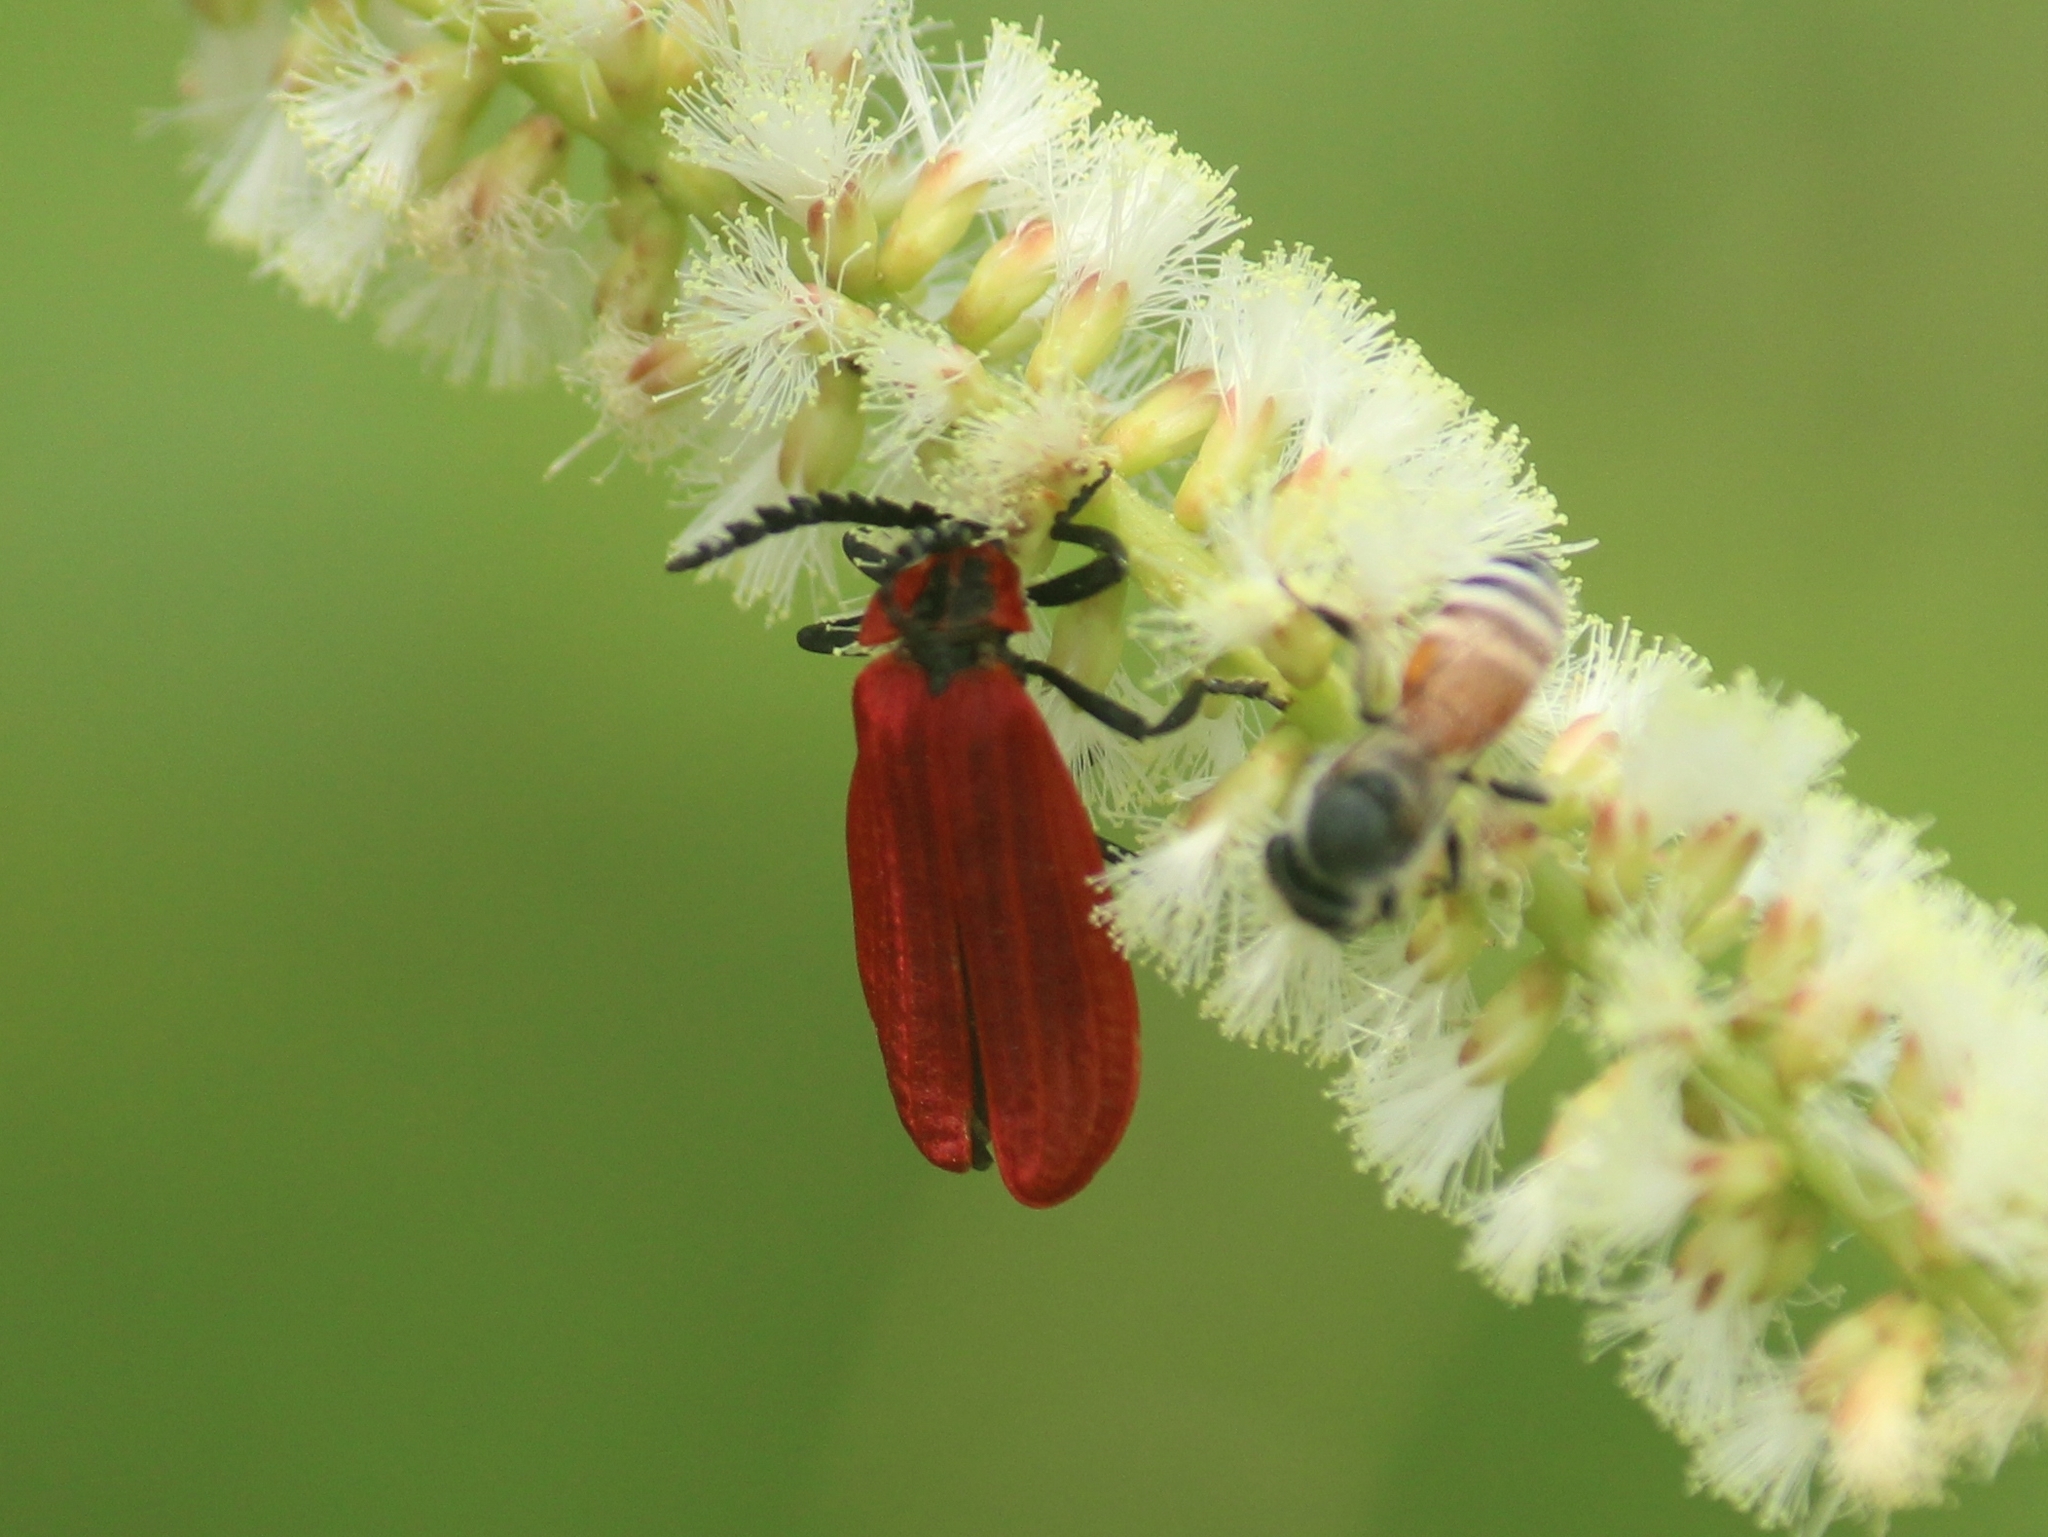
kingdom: Animalia
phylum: Arthropoda
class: Insecta
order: Coleoptera
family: Lycidae
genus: Lycostomus
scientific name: Lycostomus similis
